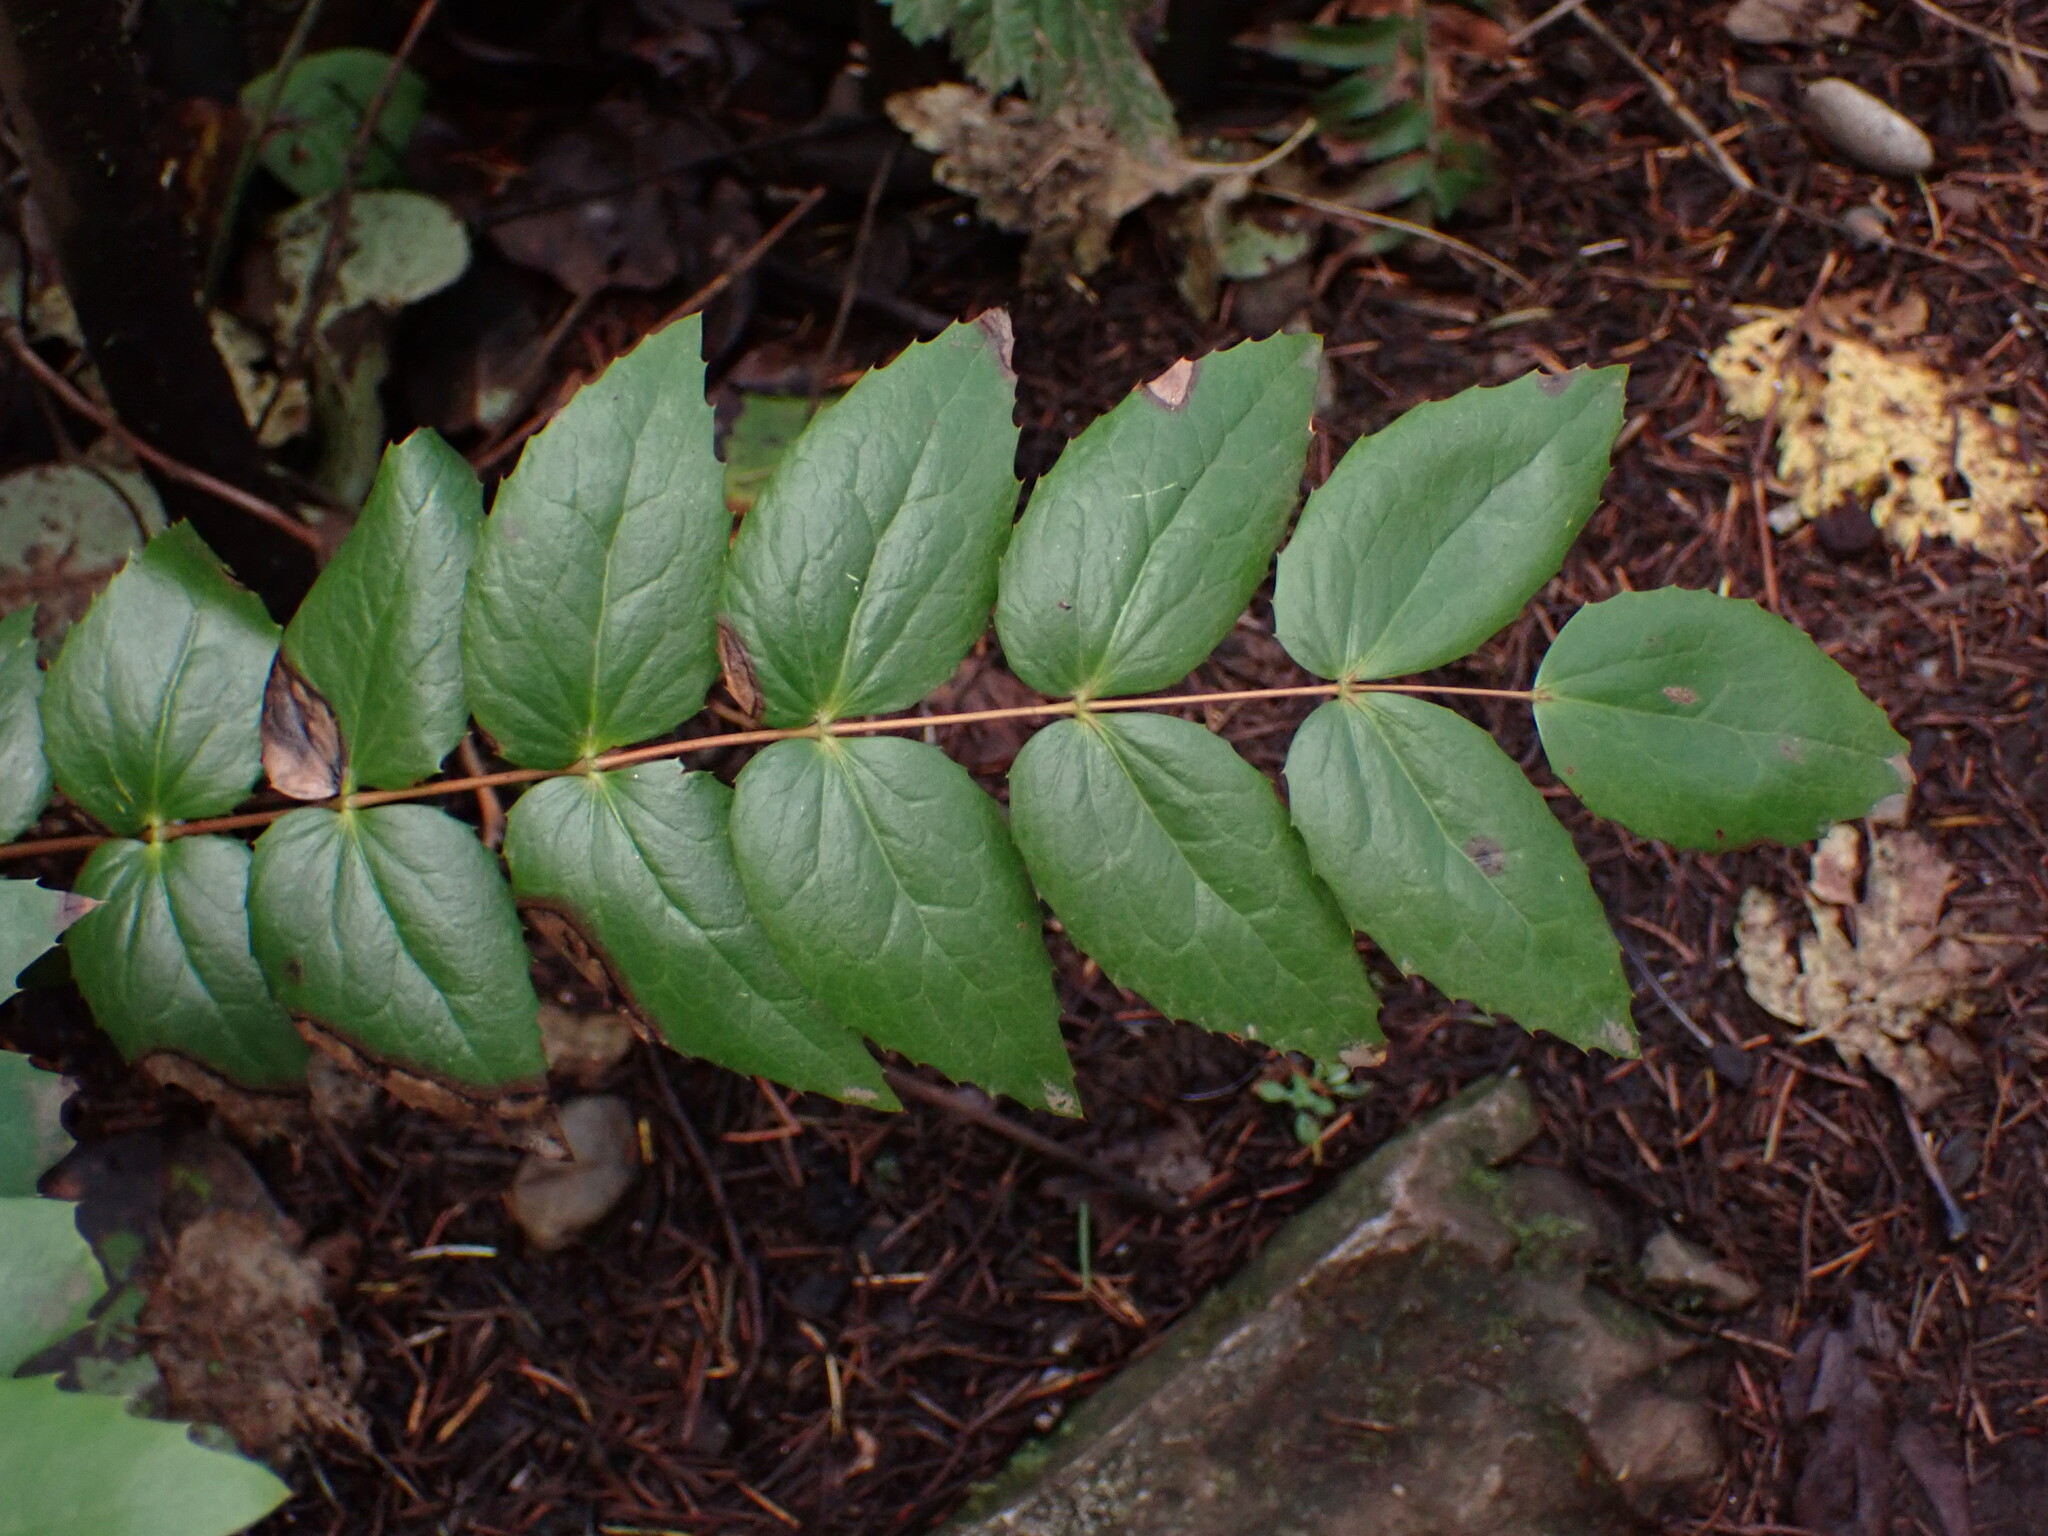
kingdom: Plantae
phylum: Tracheophyta
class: Magnoliopsida
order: Ranunculales
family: Berberidaceae
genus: Mahonia
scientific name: Mahonia nervosa
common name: Cascade oregon-grape
